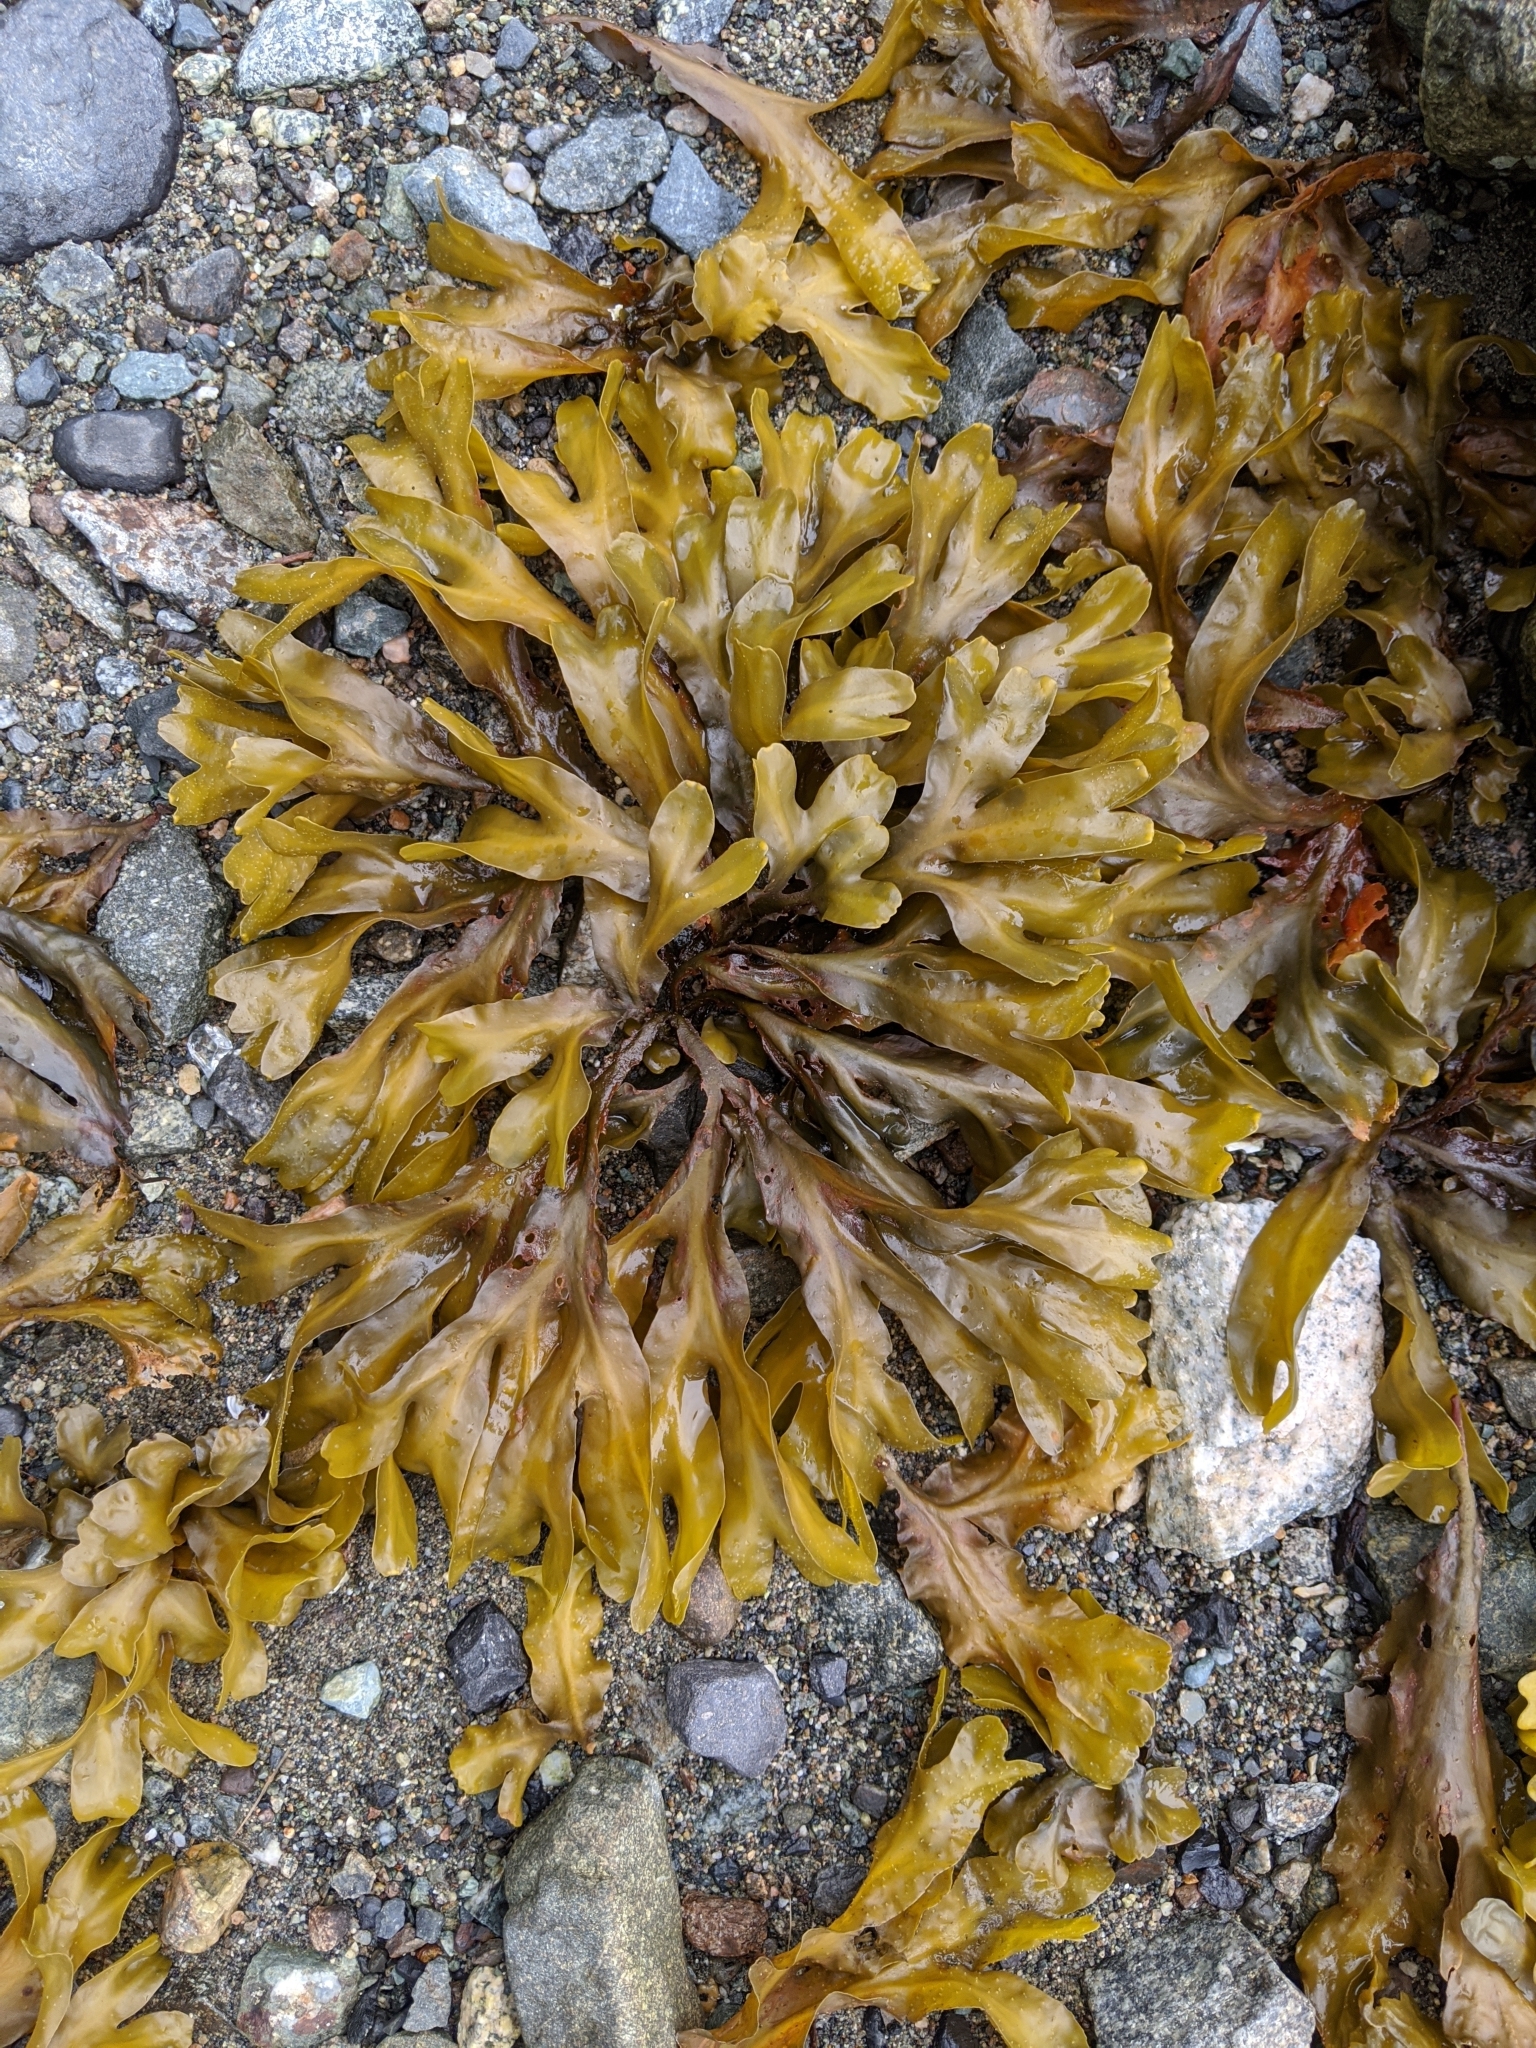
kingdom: Chromista
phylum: Ochrophyta
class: Phaeophyceae
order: Fucales
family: Fucaceae
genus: Fucus
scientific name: Fucus distichus
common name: Rockweed
